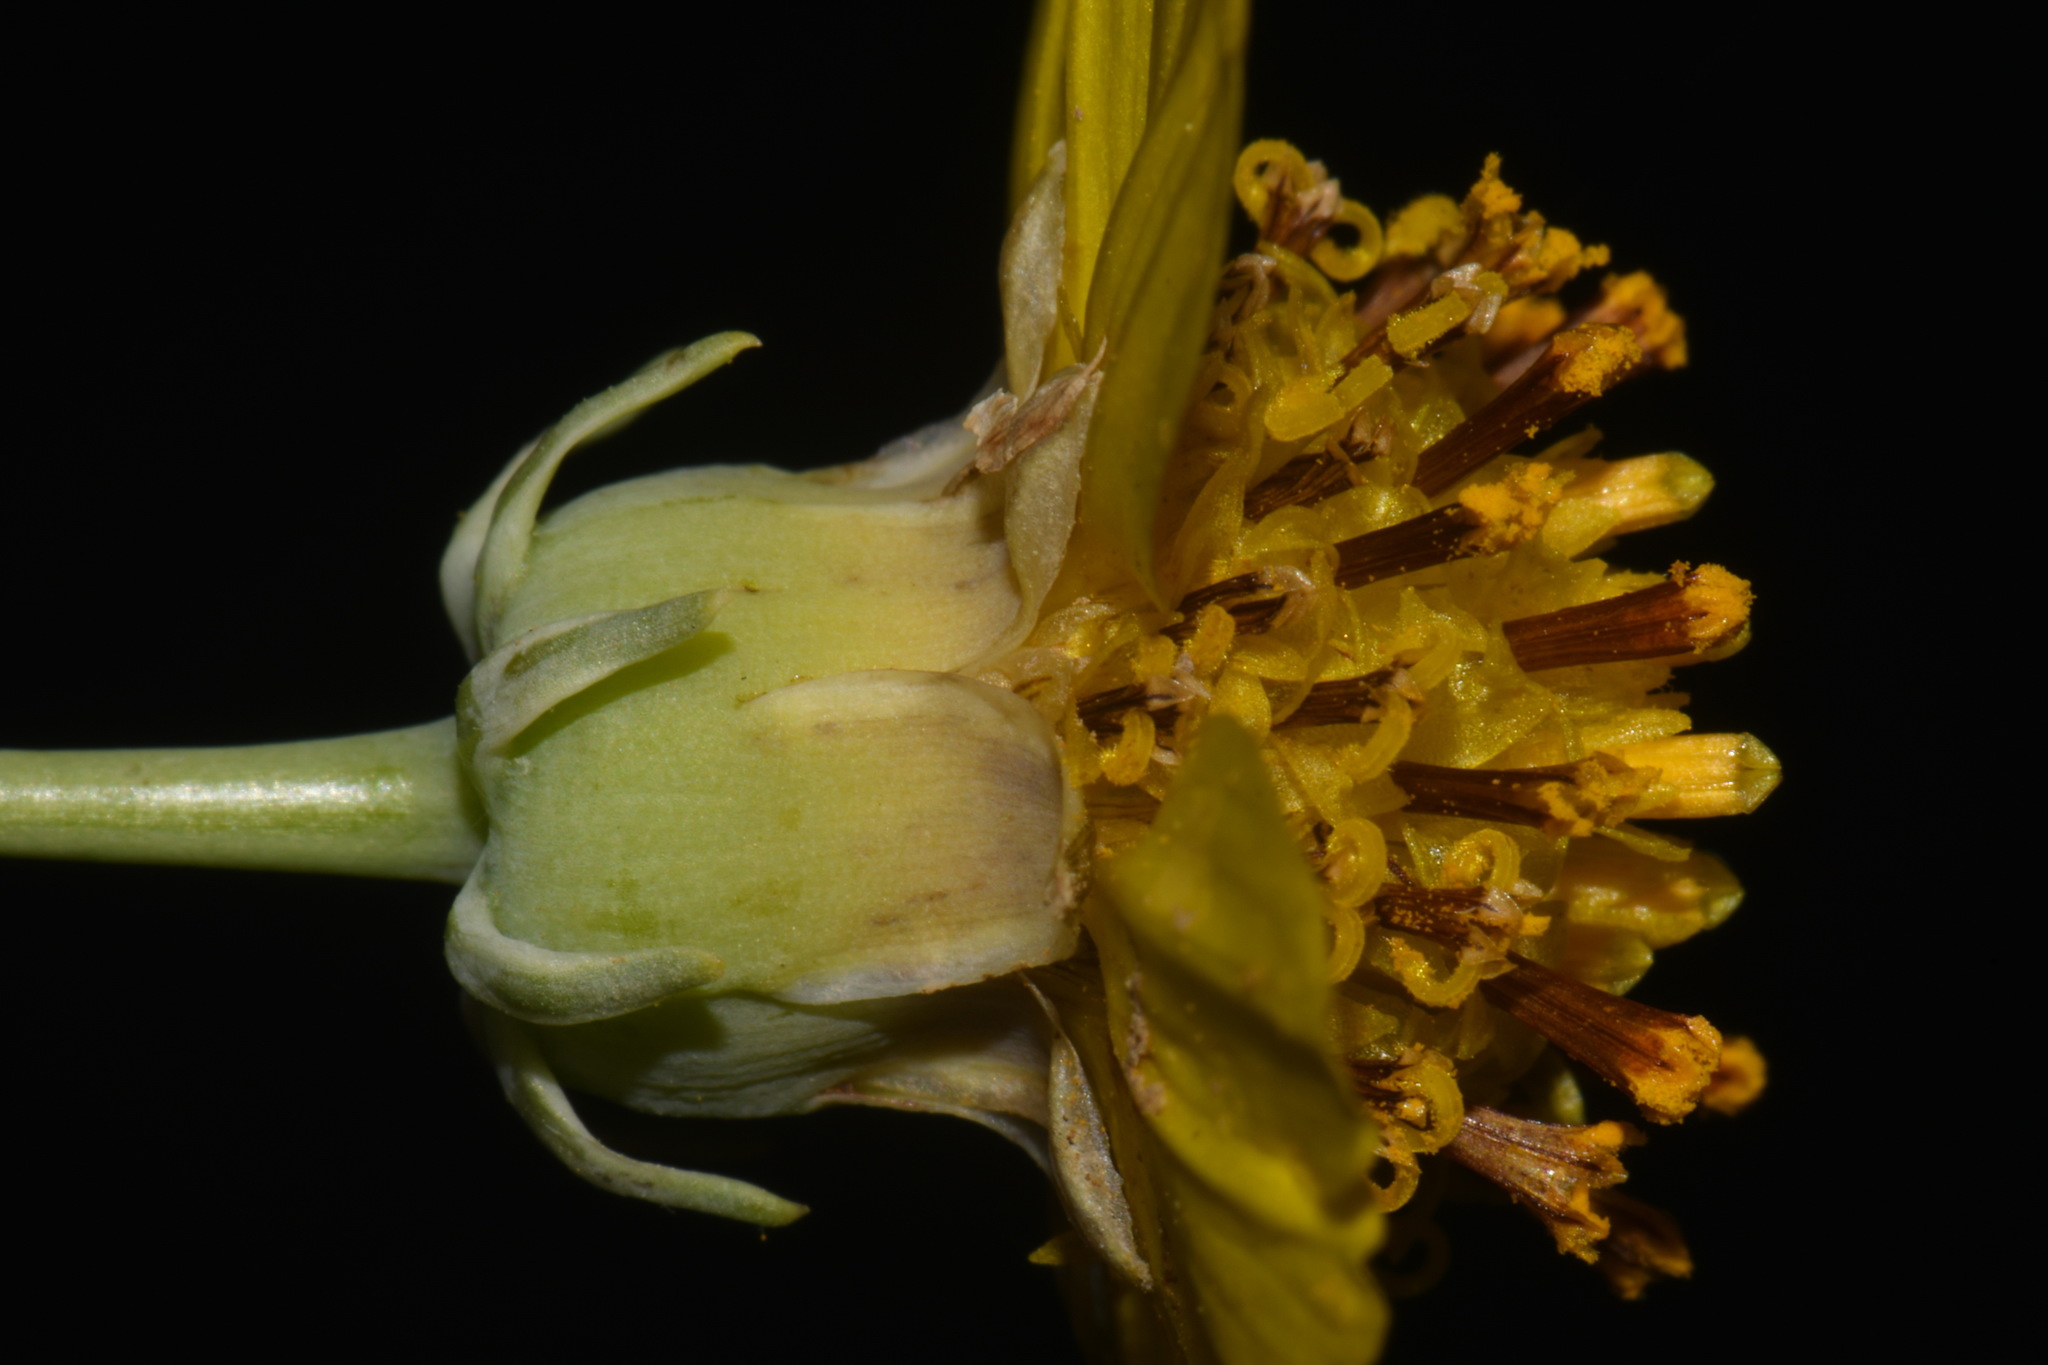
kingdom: Plantae
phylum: Tracheophyta
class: Magnoliopsida
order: Asterales
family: Asteraceae
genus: Thelesperma
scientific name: Thelesperma subnudum
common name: Navajo tea
